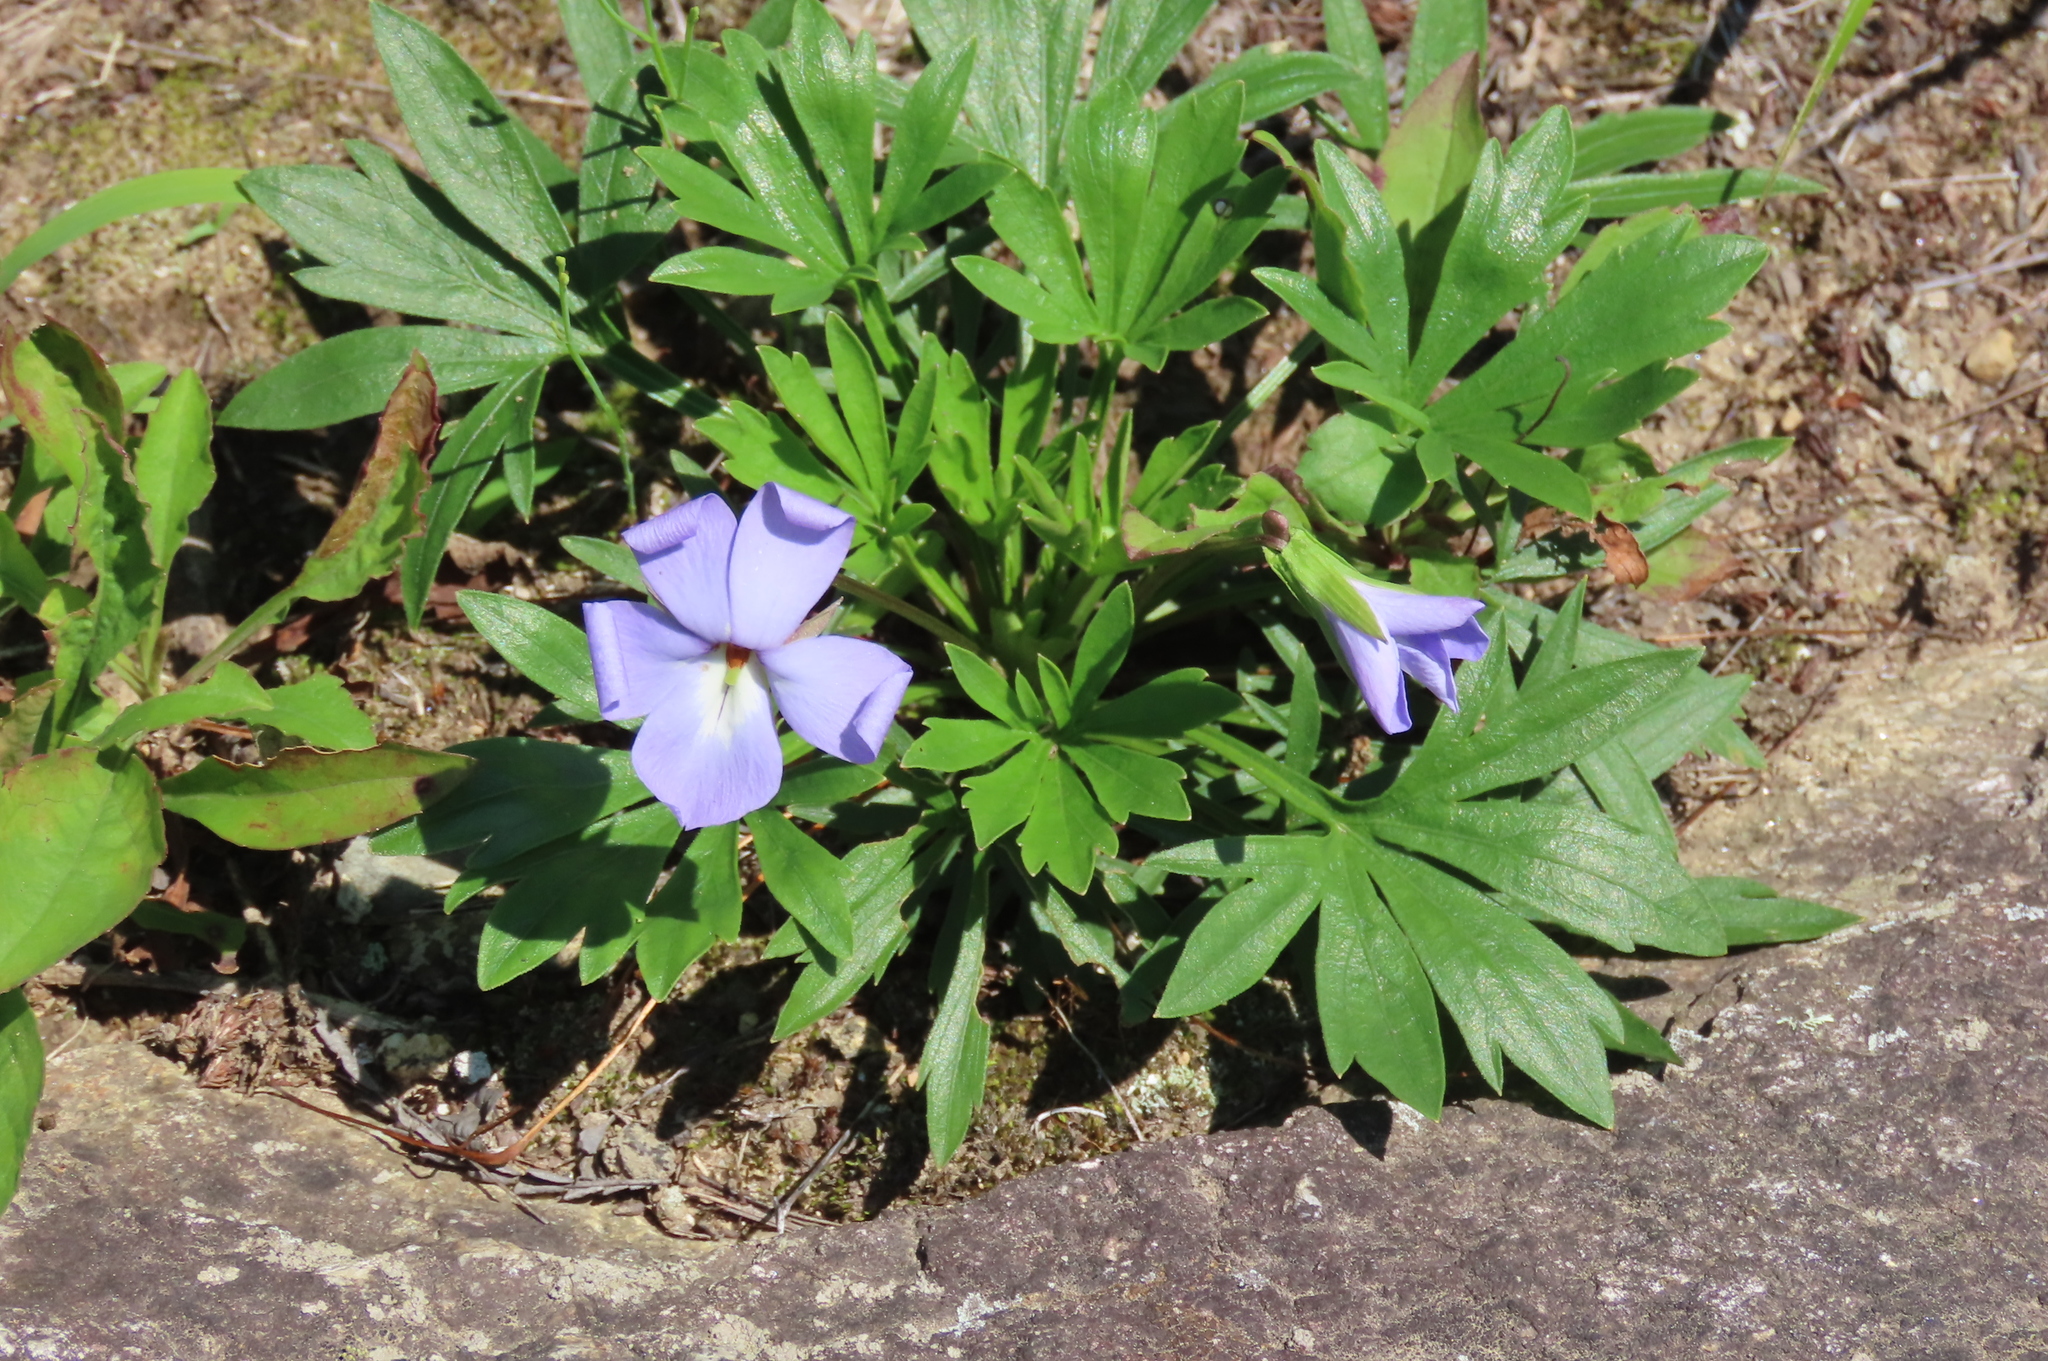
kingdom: Plantae
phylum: Tracheophyta
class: Magnoliopsida
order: Malpighiales
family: Violaceae
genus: Viola
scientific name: Viola pedata
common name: Pansy violet
